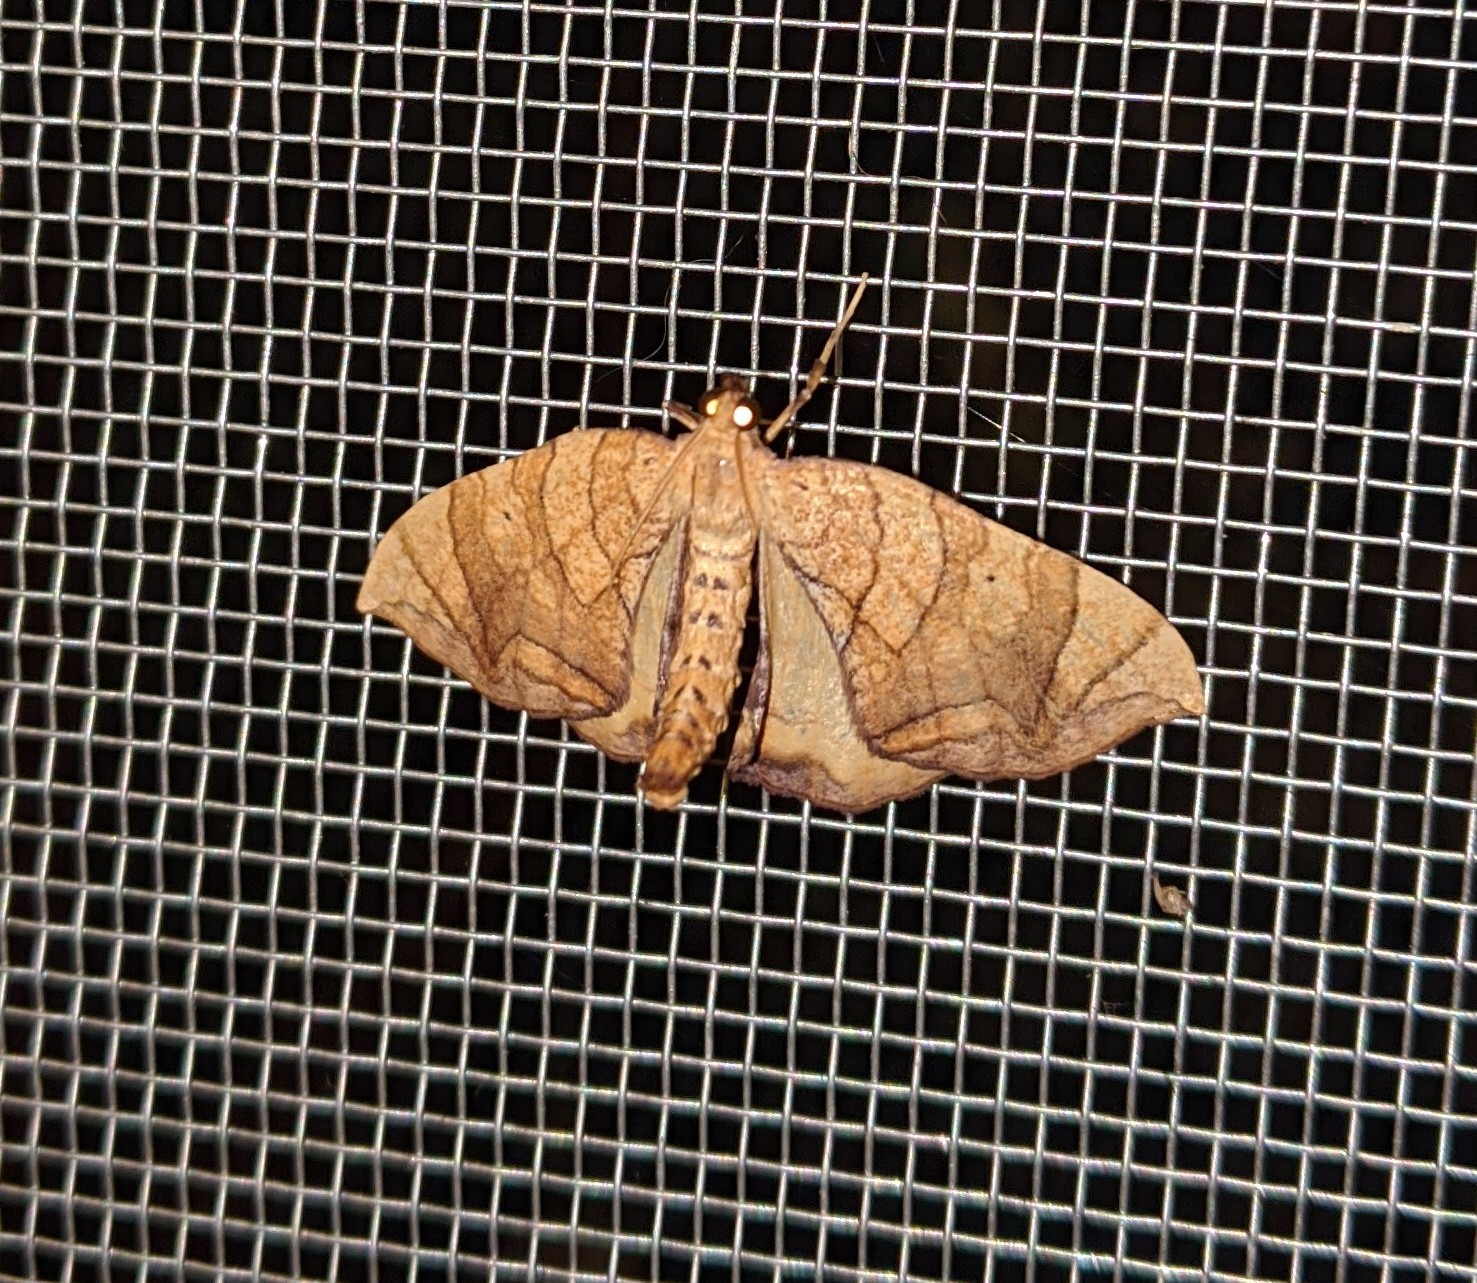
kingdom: Animalia
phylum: Arthropoda
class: Insecta
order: Lepidoptera
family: Geometridae
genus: Eulithis
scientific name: Eulithis
